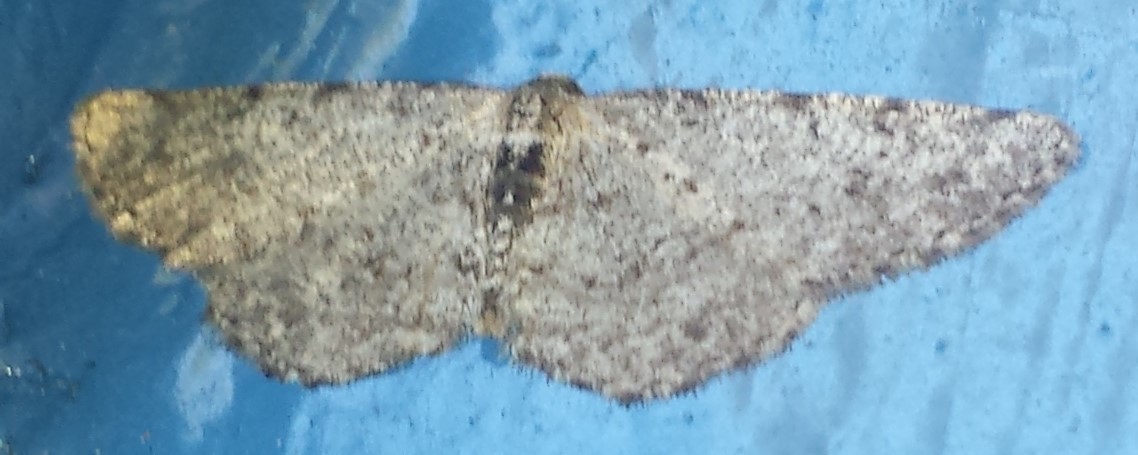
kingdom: Animalia
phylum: Arthropoda
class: Insecta
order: Lepidoptera
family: Geometridae
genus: Aethalura
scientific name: Aethalura intertexta
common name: Four-barred gray
